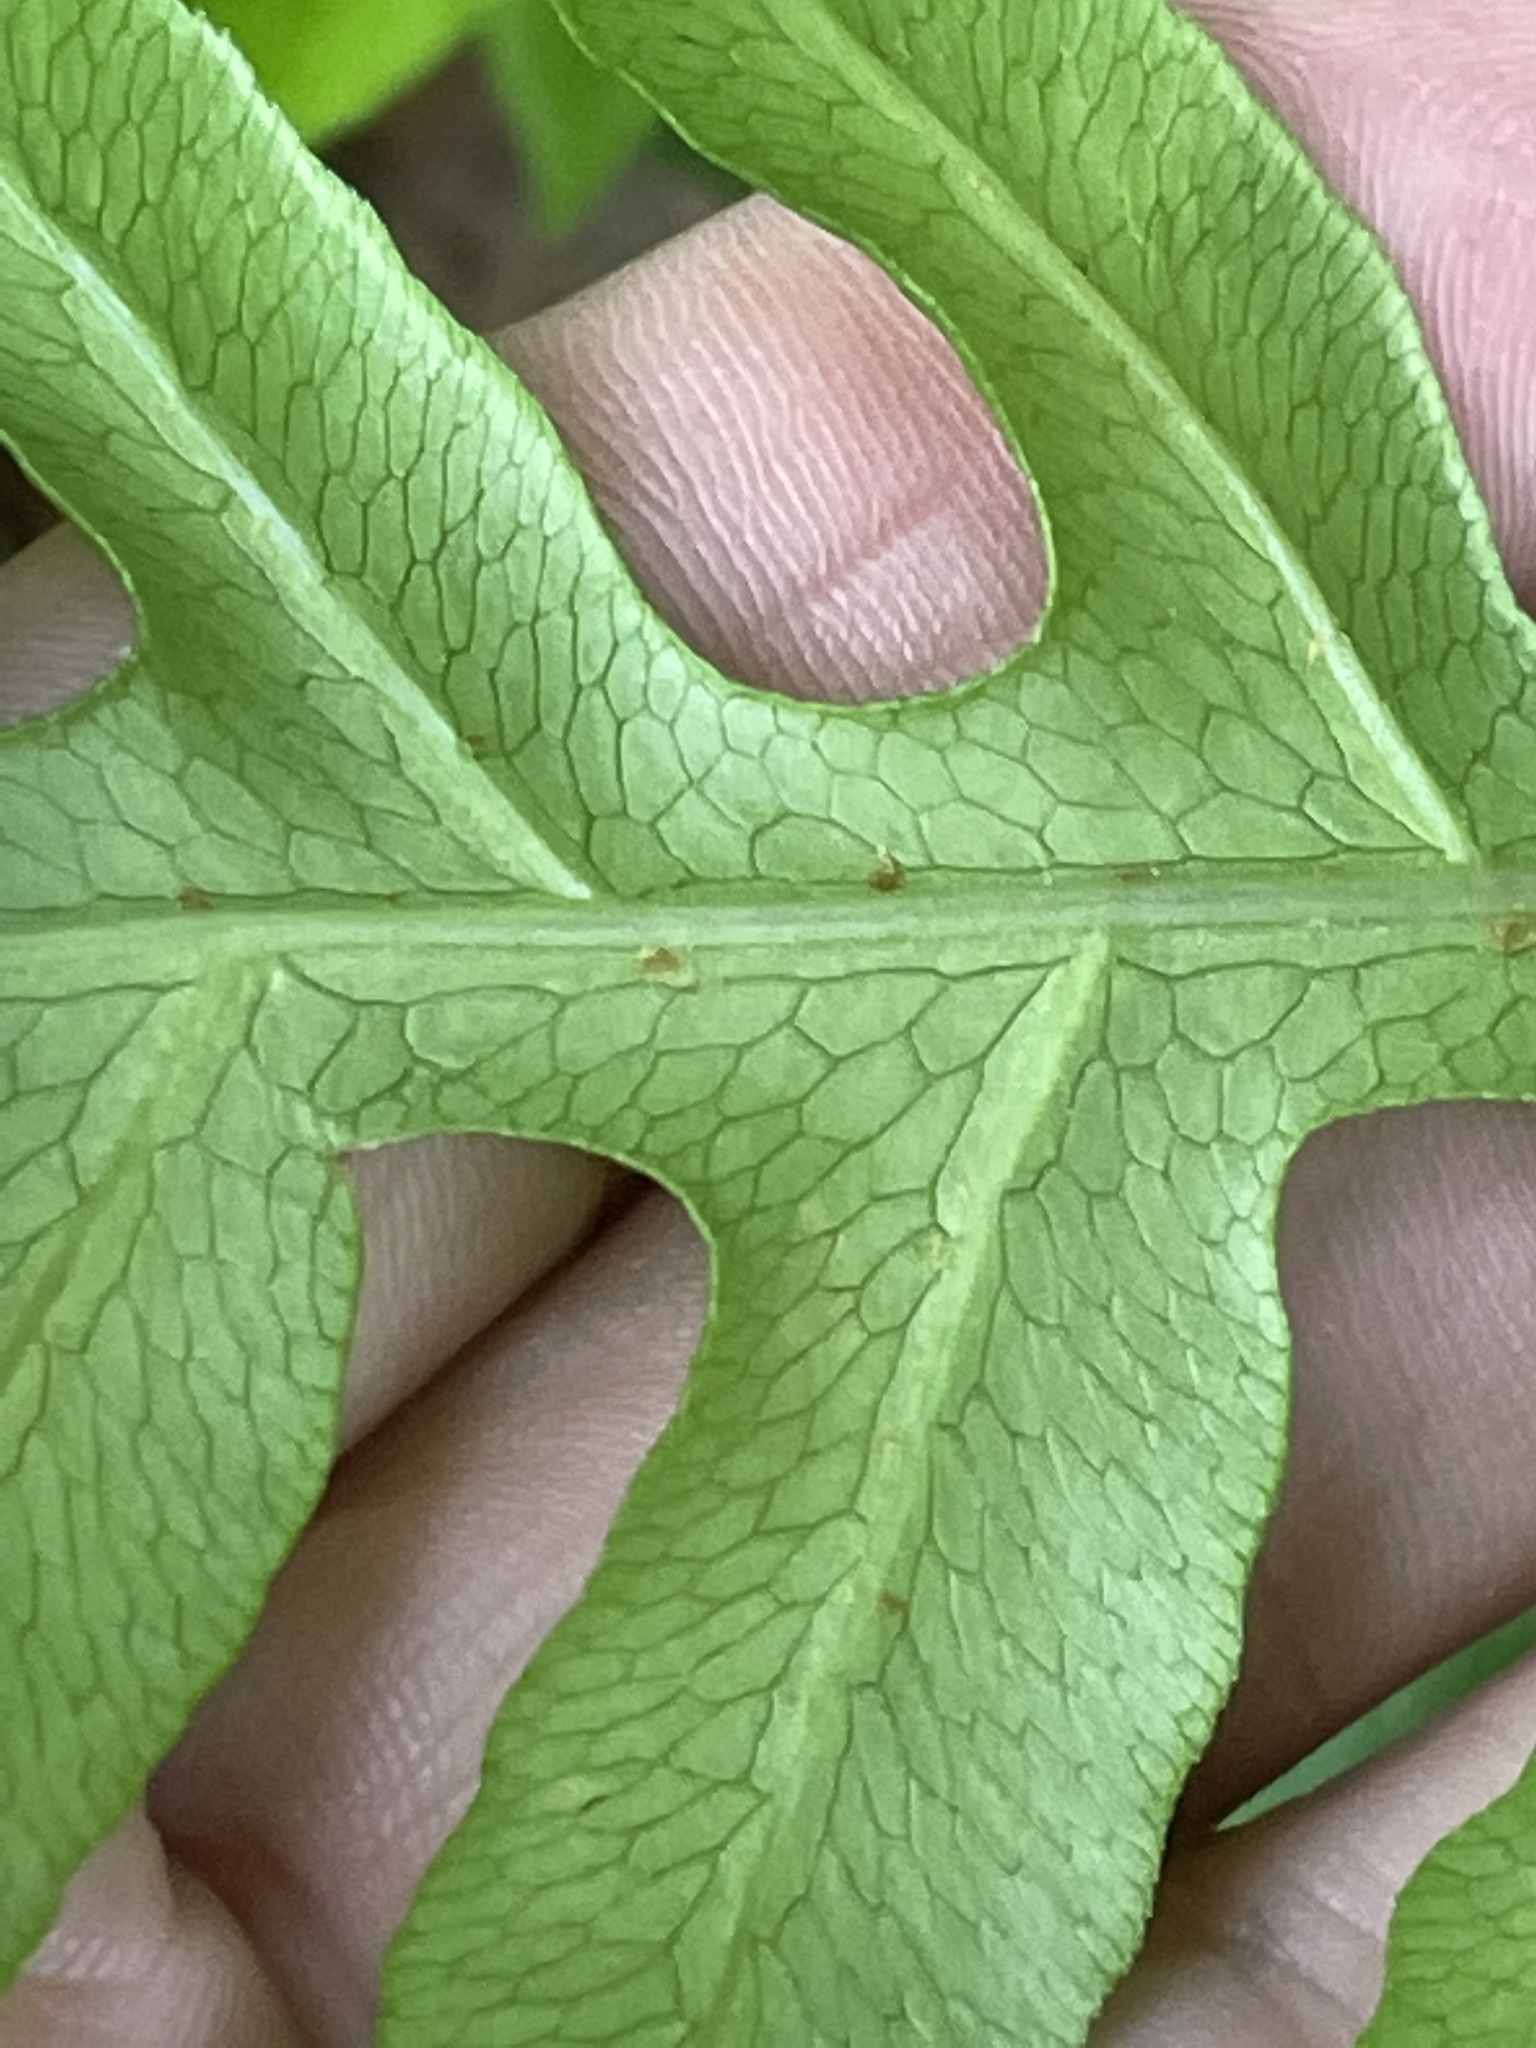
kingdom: Plantae
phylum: Tracheophyta
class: Polypodiopsida
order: Polypodiales
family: Blechnaceae
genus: Lorinseria
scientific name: Lorinseria areolata
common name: Dwarf chain fern
